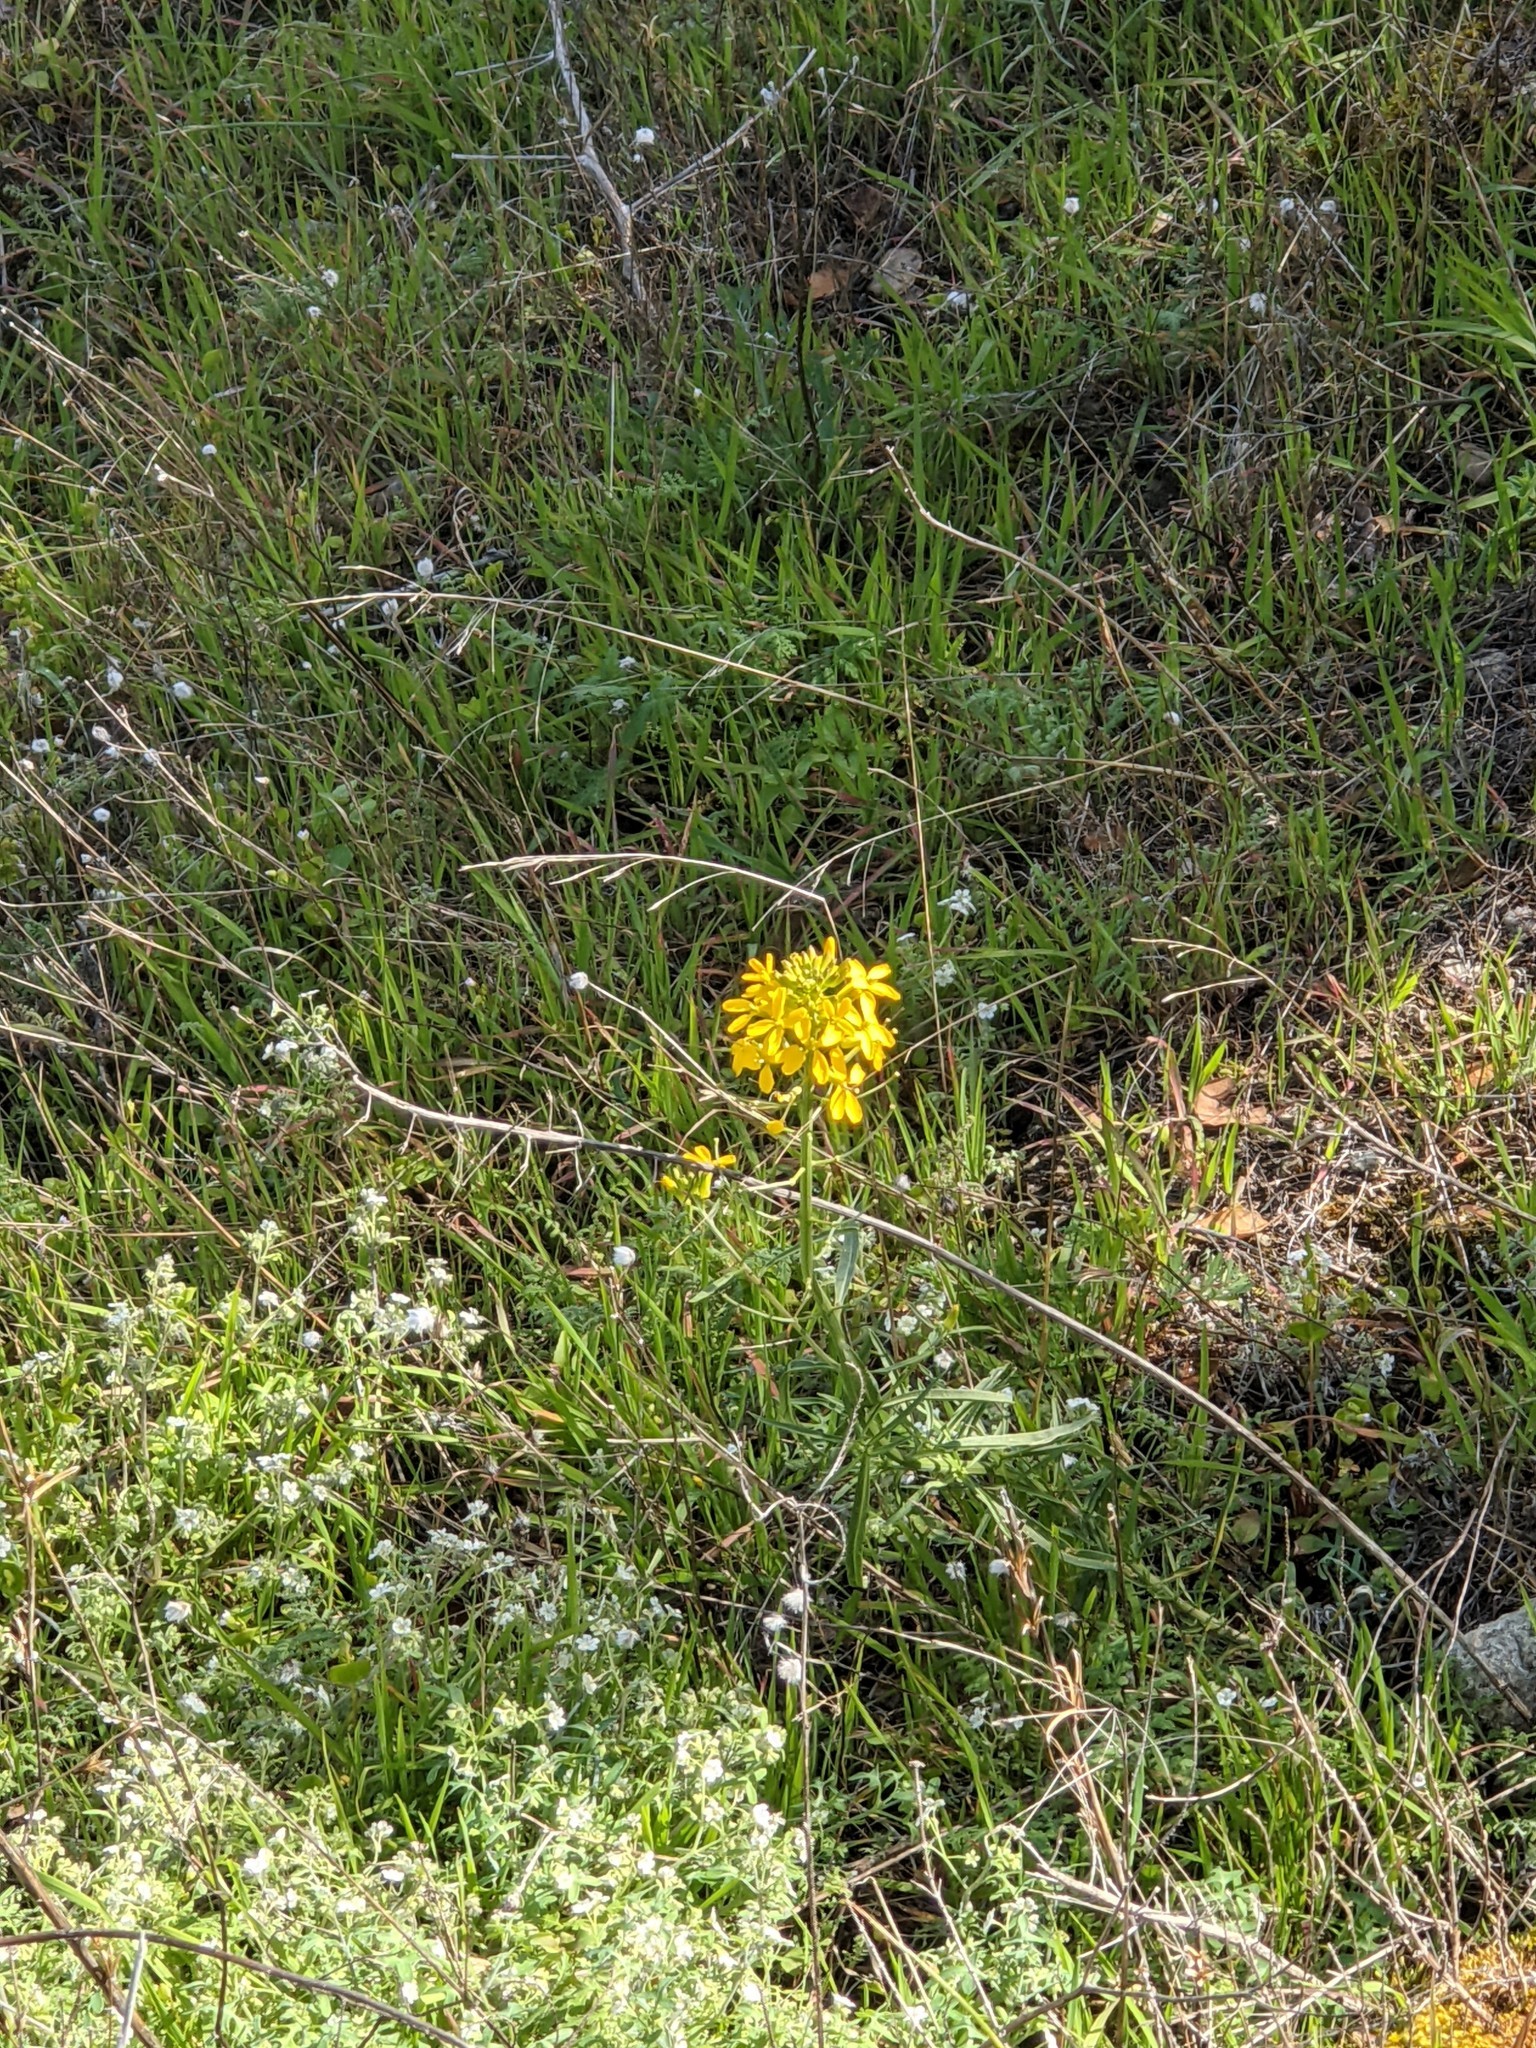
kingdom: Plantae
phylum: Tracheophyta
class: Magnoliopsida
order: Brassicales
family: Brassicaceae
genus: Erysimum
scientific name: Erysimum capitatum
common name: Western wallflower
